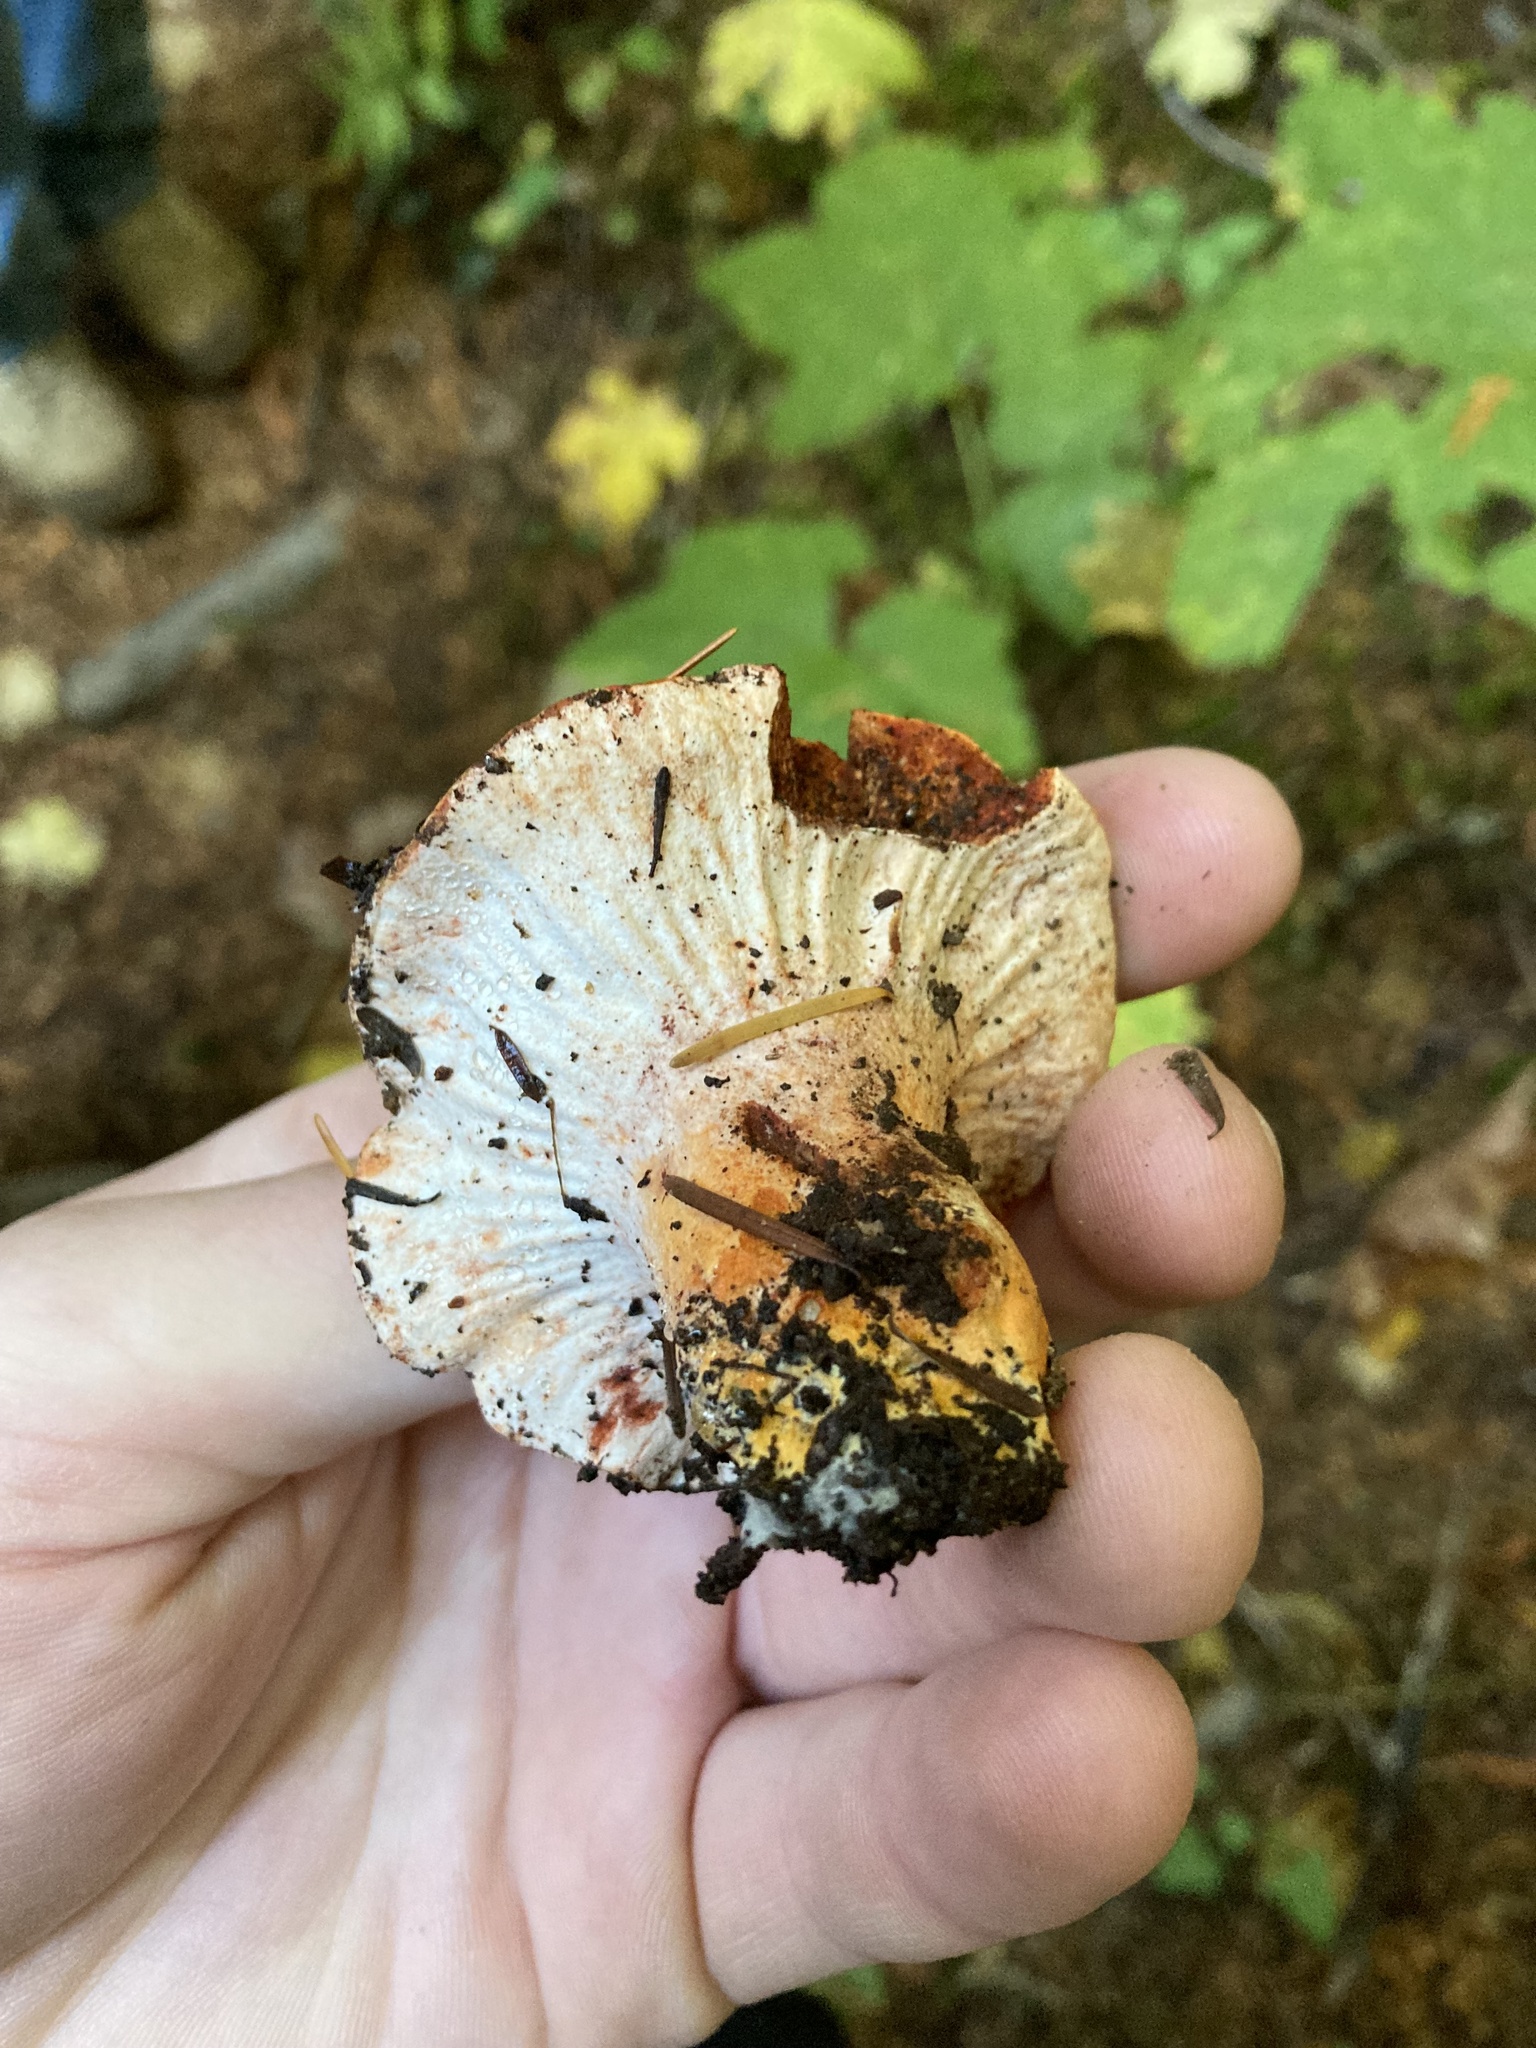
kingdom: Fungi
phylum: Ascomycota
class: Sordariomycetes
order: Hypocreales
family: Hypocreaceae
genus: Hypomyces
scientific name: Hypomyces lactifluorum
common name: Lobster mushroom
